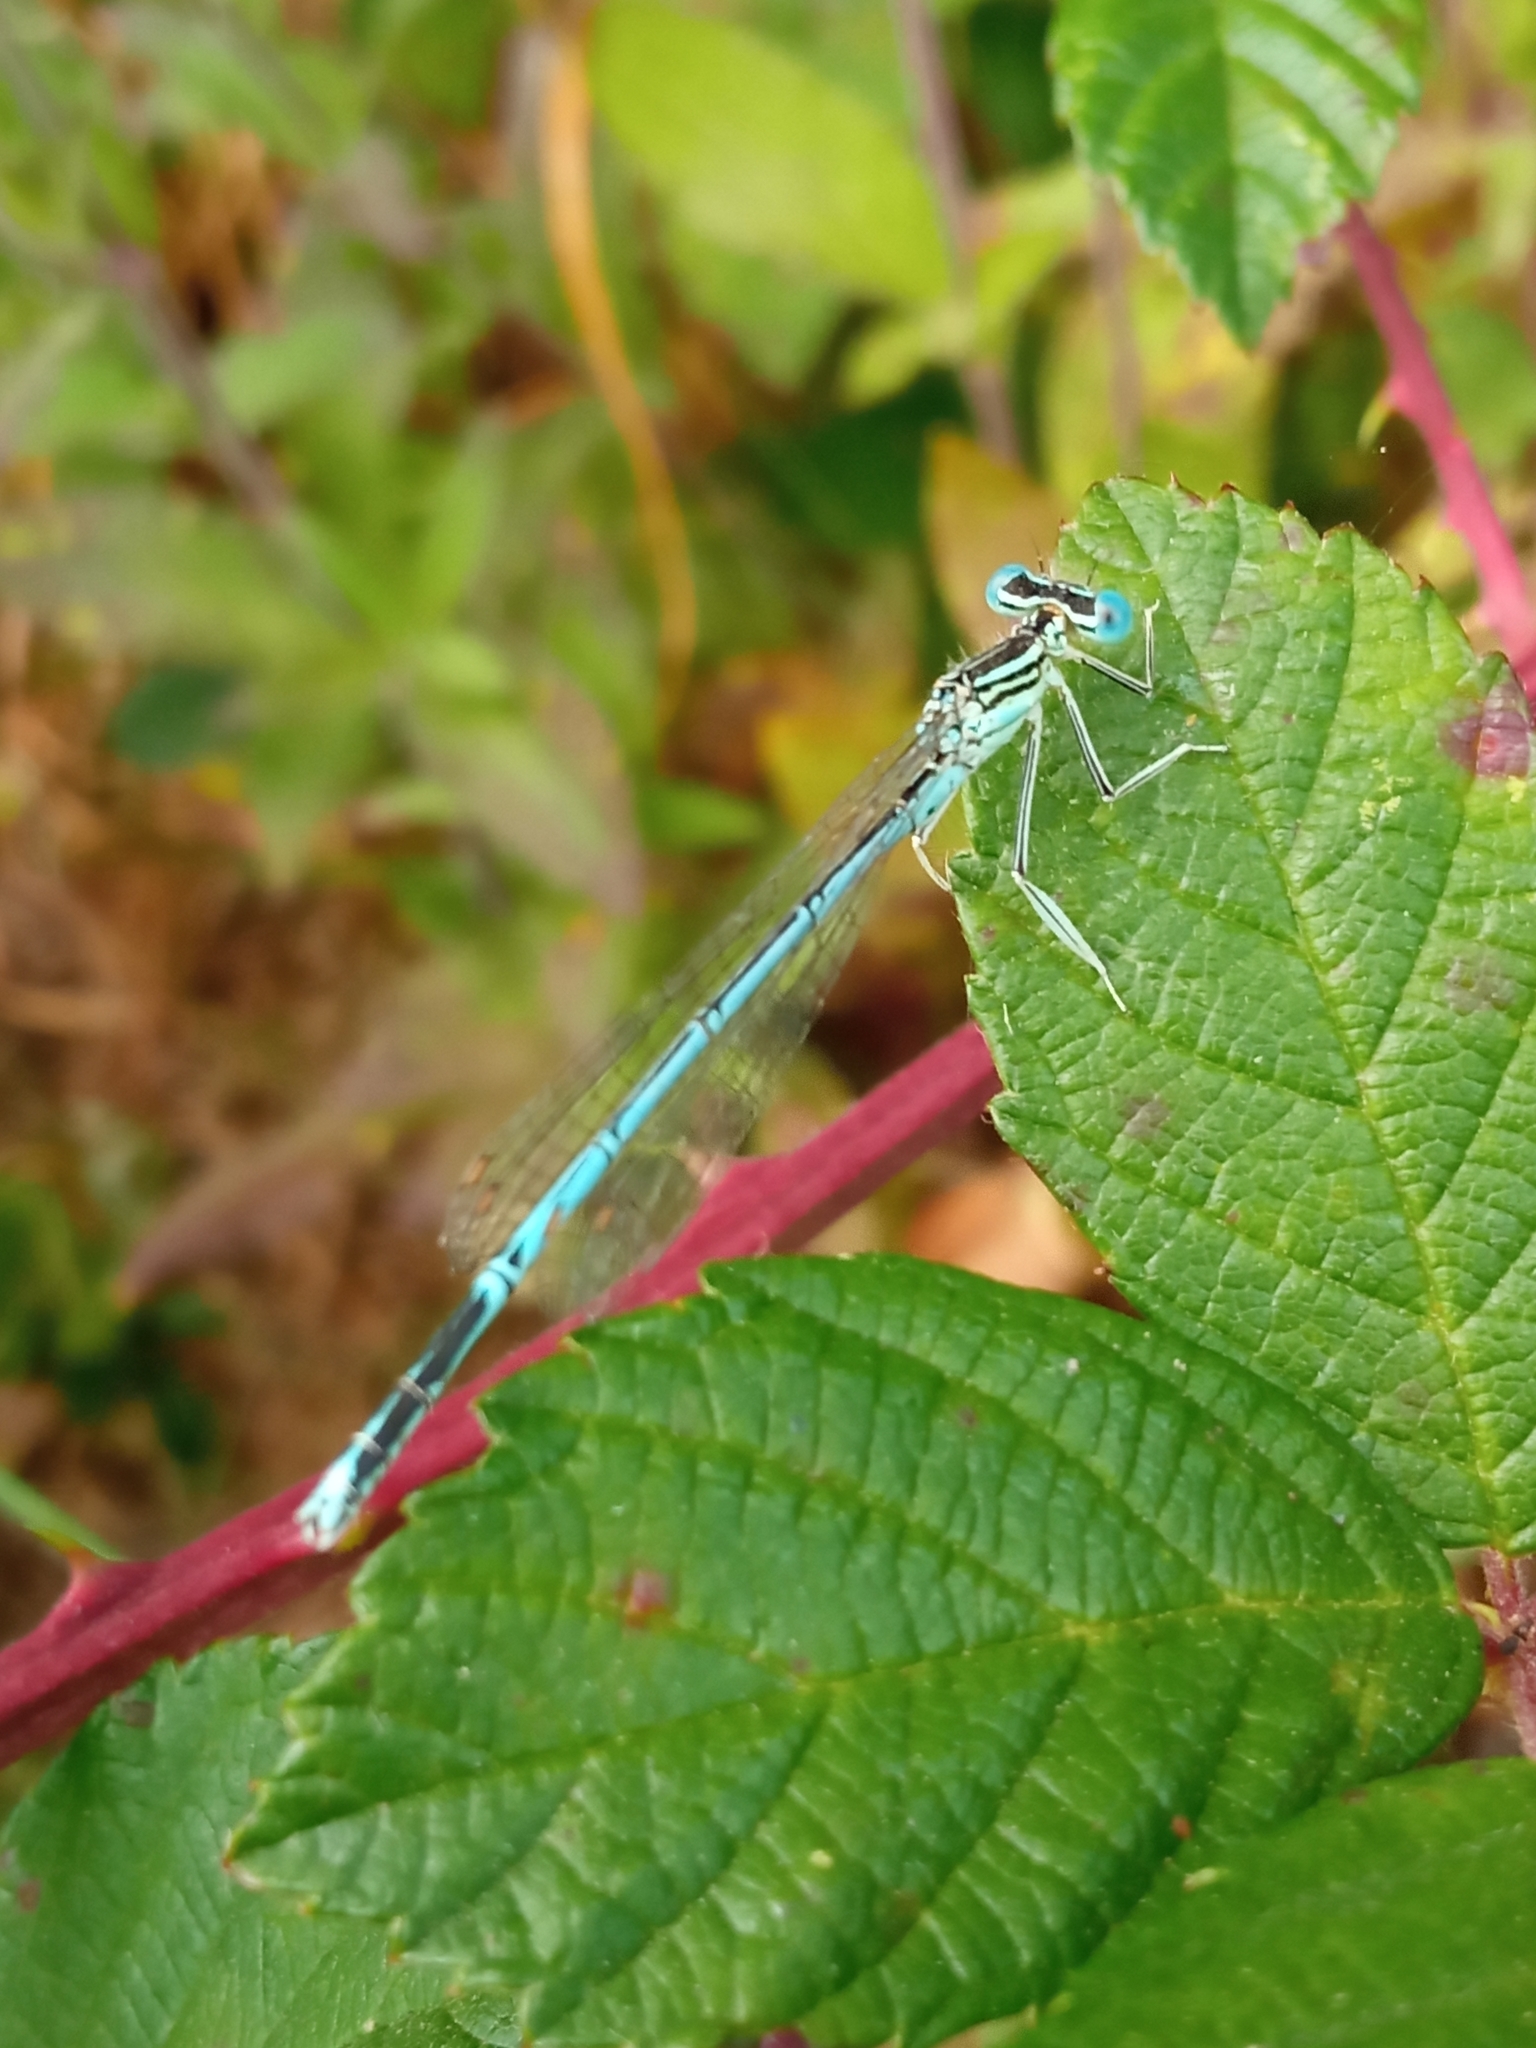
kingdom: Animalia
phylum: Arthropoda
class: Insecta
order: Odonata
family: Platycnemididae
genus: Platycnemis
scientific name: Platycnemis pennipes
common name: White-legged damselfly
